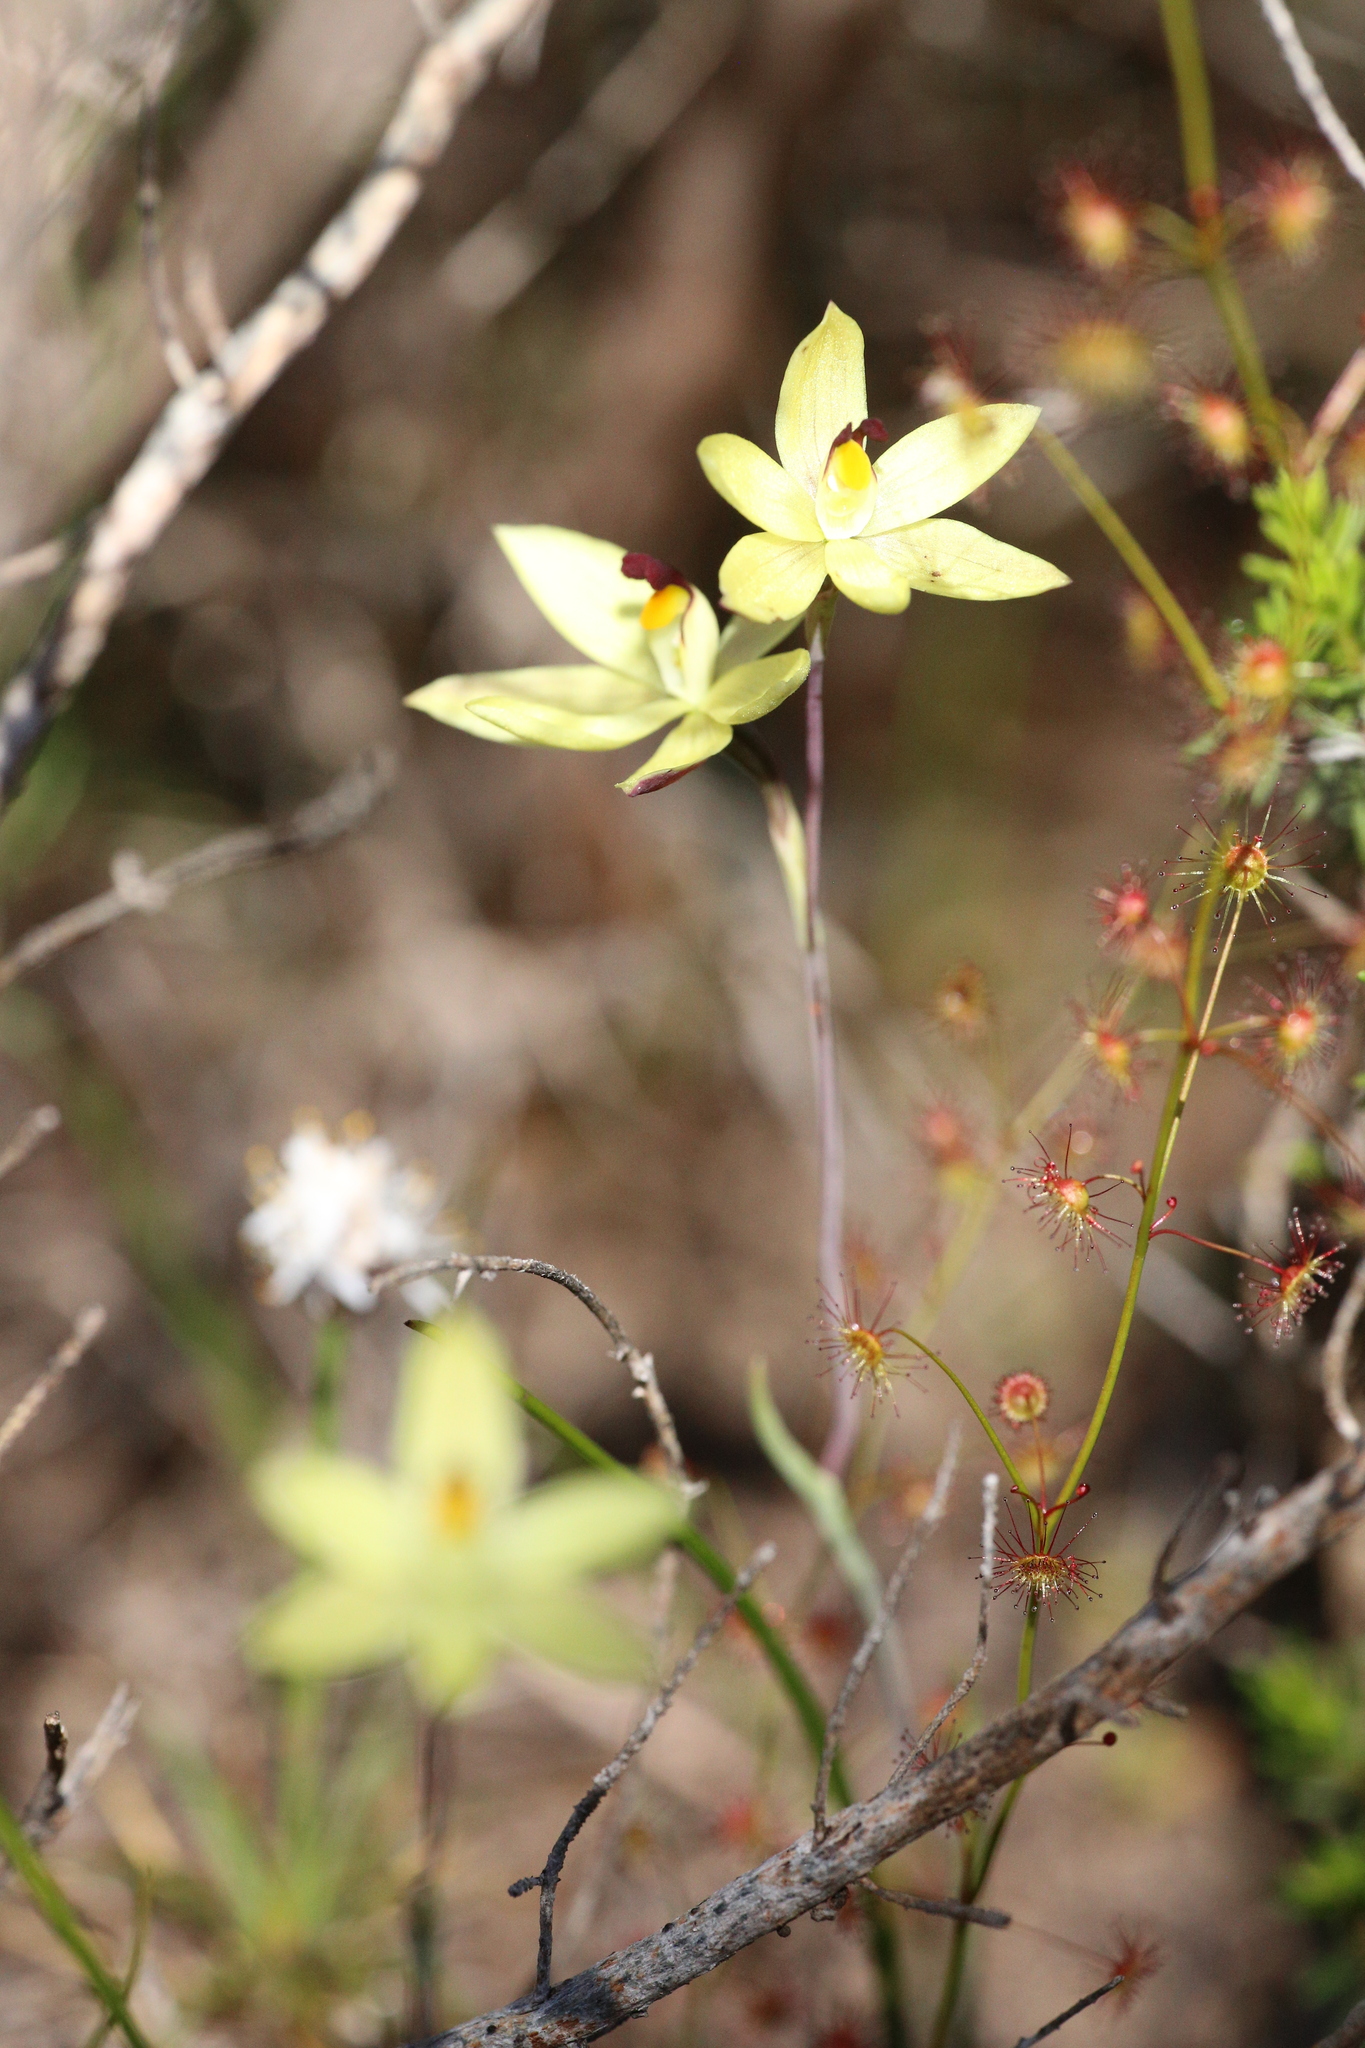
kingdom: Plantae
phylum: Tracheophyta
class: Liliopsida
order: Asparagales
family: Orchidaceae
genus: Thelymitra
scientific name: Thelymitra antennifera
